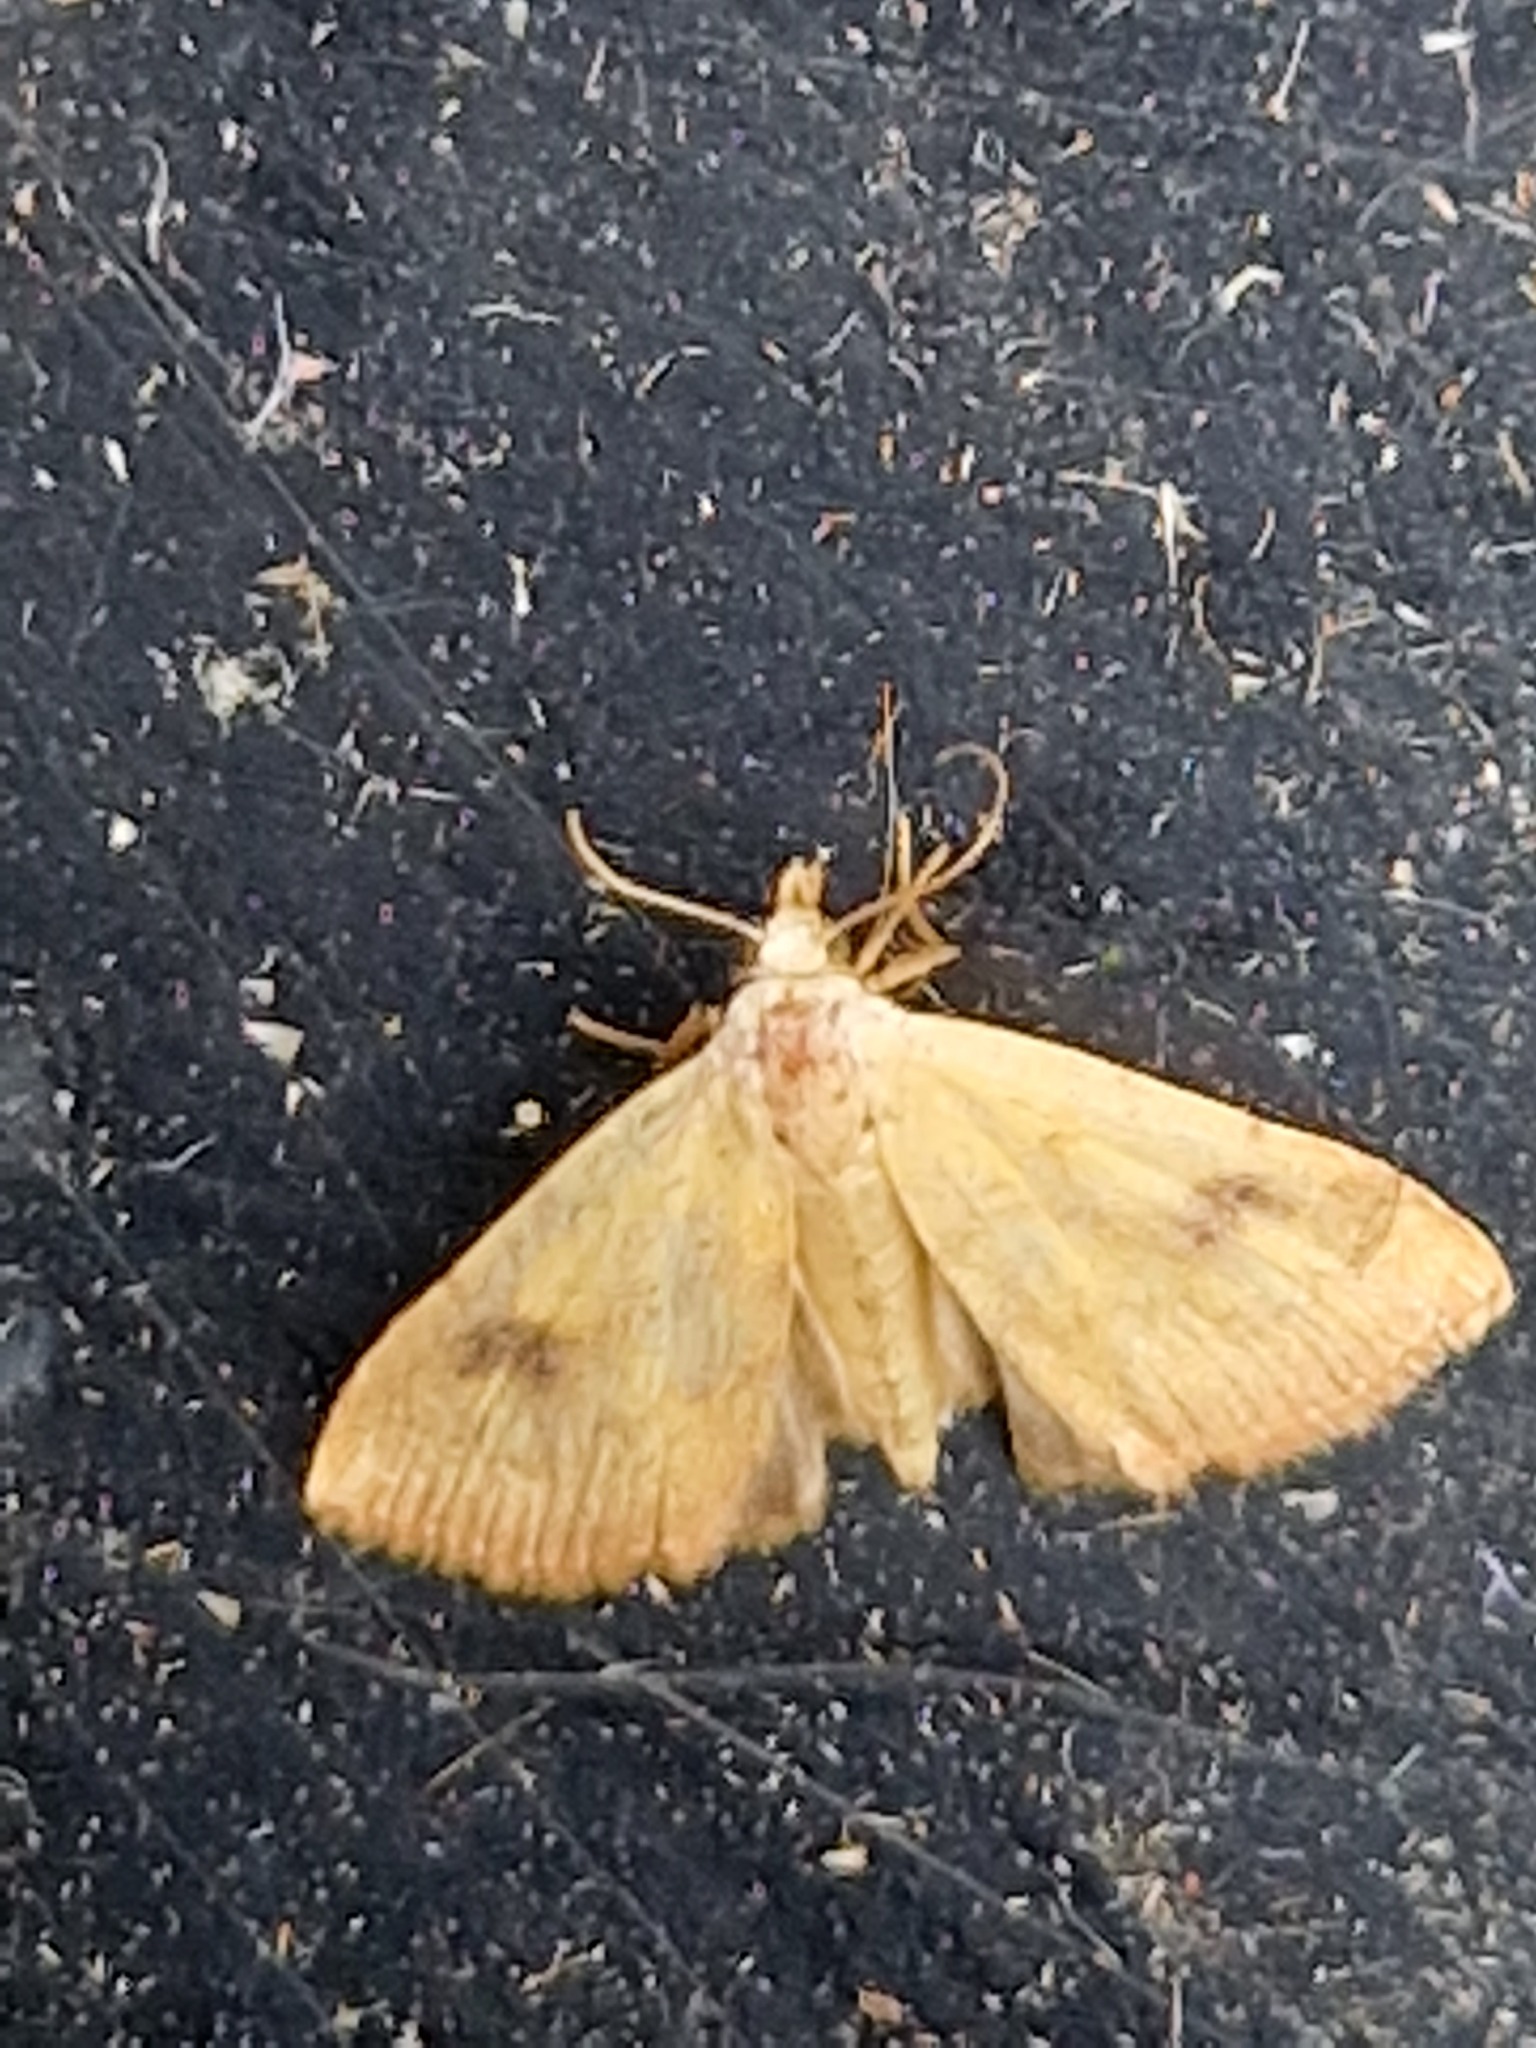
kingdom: Animalia
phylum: Arthropoda
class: Insecta
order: Lepidoptera
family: Erebidae
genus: Rivula
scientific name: Rivula sericealis
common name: Straw dot
